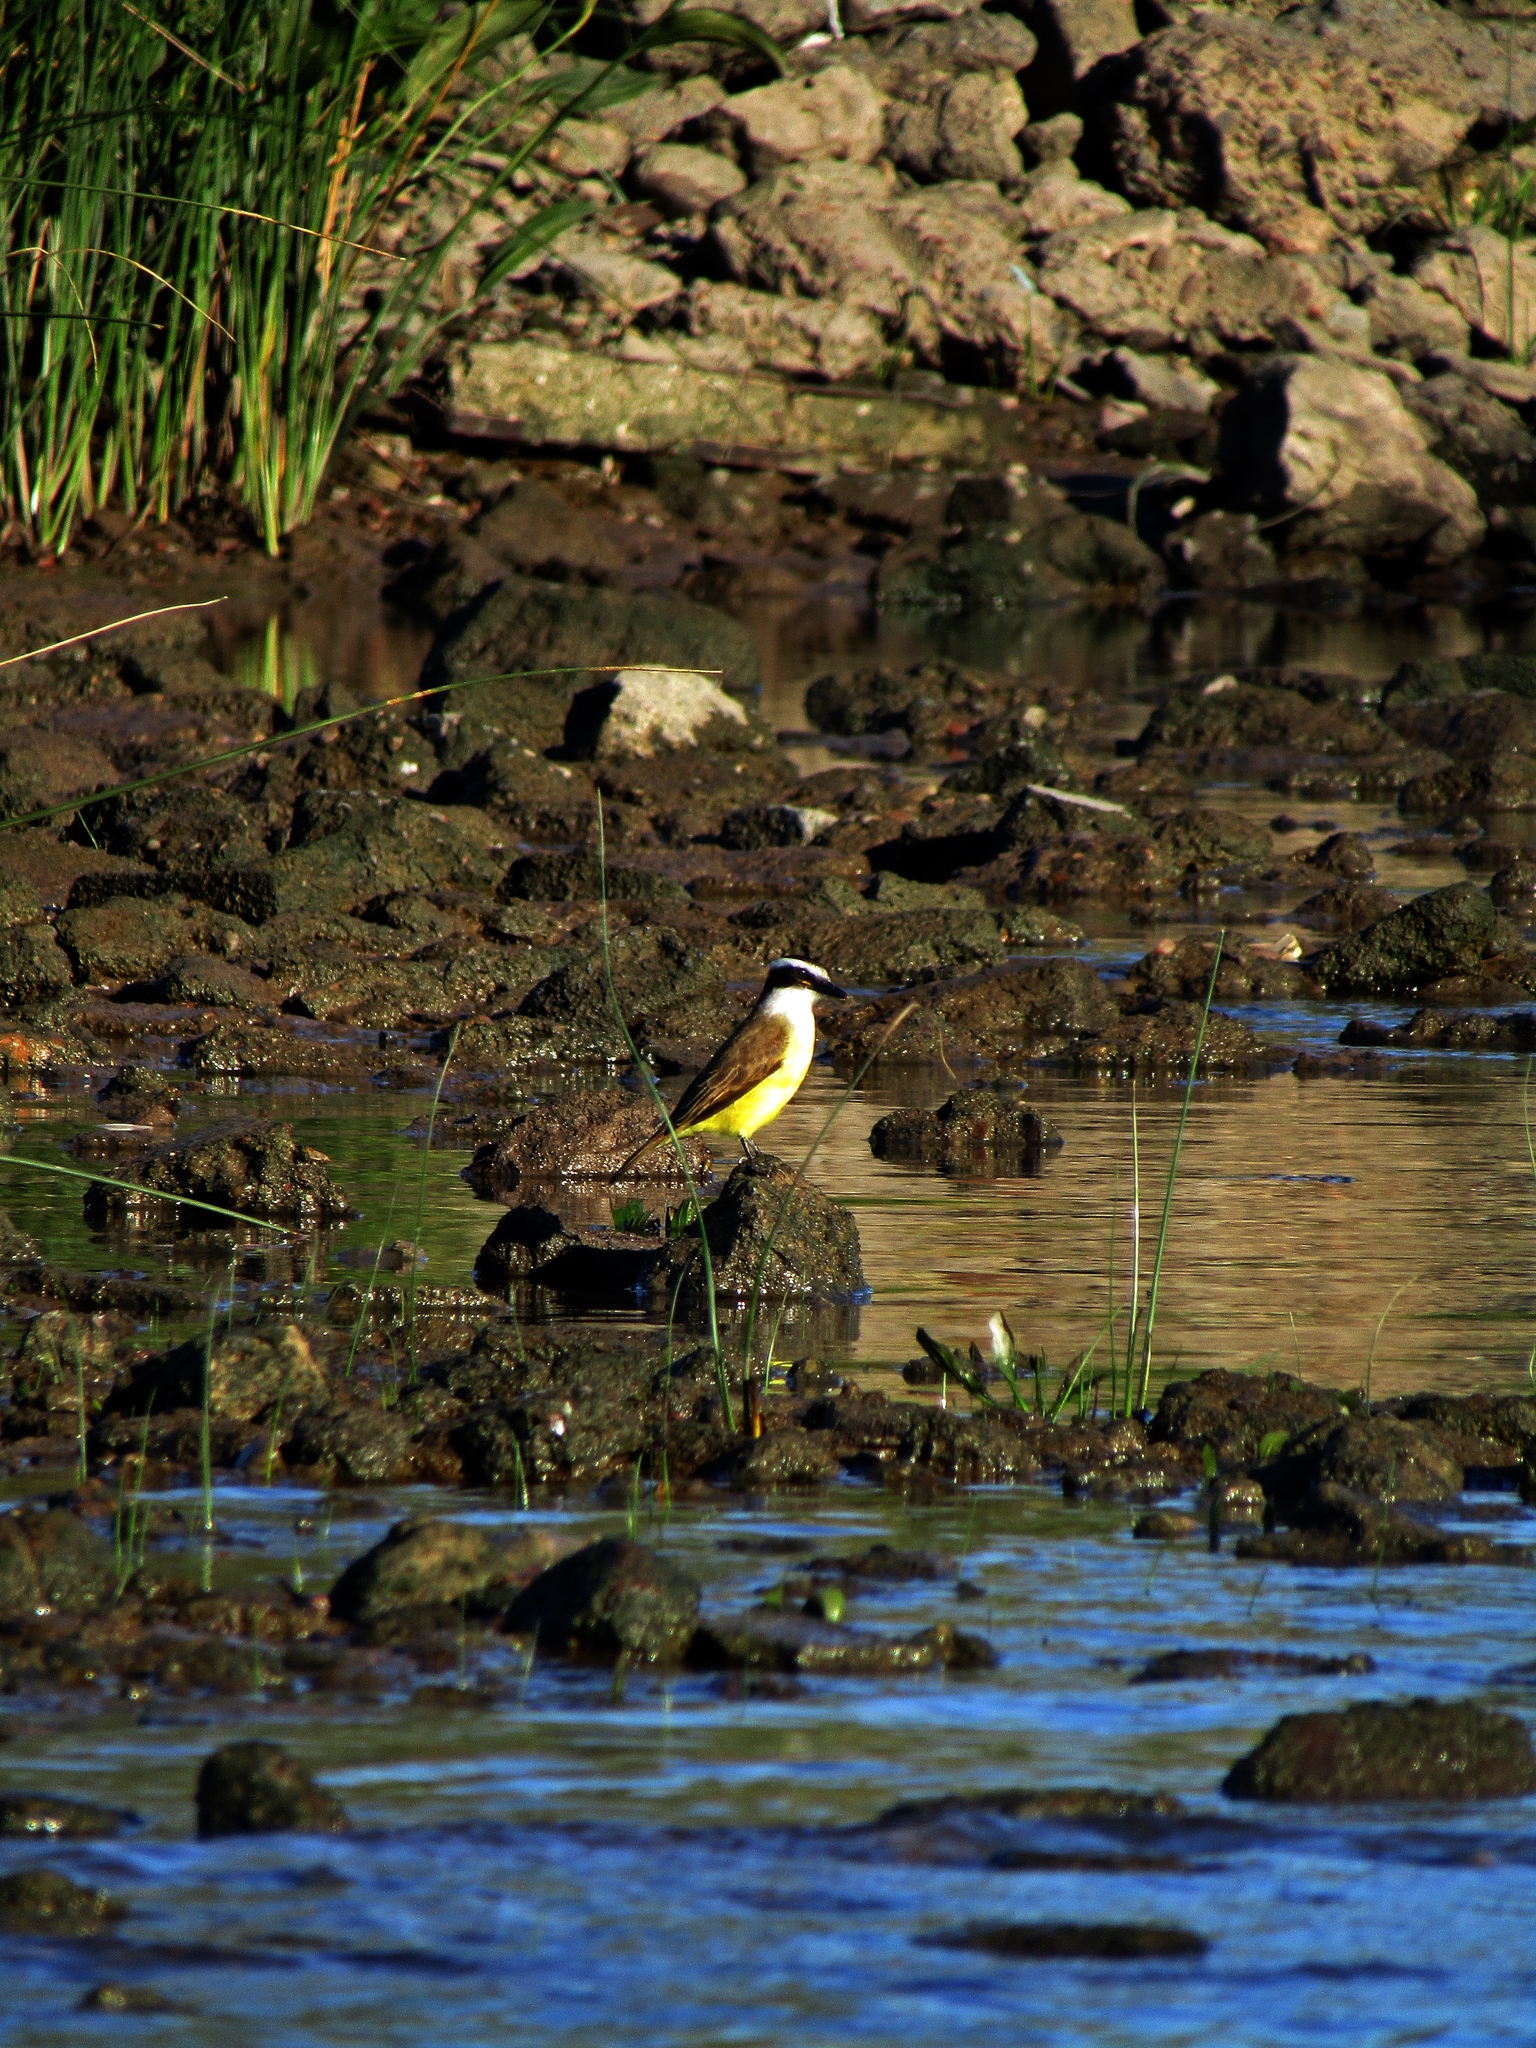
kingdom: Animalia
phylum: Chordata
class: Aves
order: Passeriformes
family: Tyrannidae
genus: Pitangus
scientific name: Pitangus sulphuratus
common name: Great kiskadee
